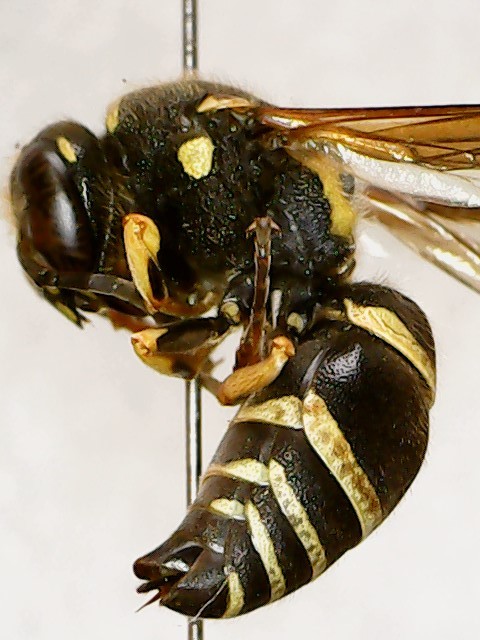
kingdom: Animalia
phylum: Arthropoda
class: Insecta
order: Hymenoptera
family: Vespidae
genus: Ancistrocerus
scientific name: Ancistrocerus catskill
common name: Vespid wasp
